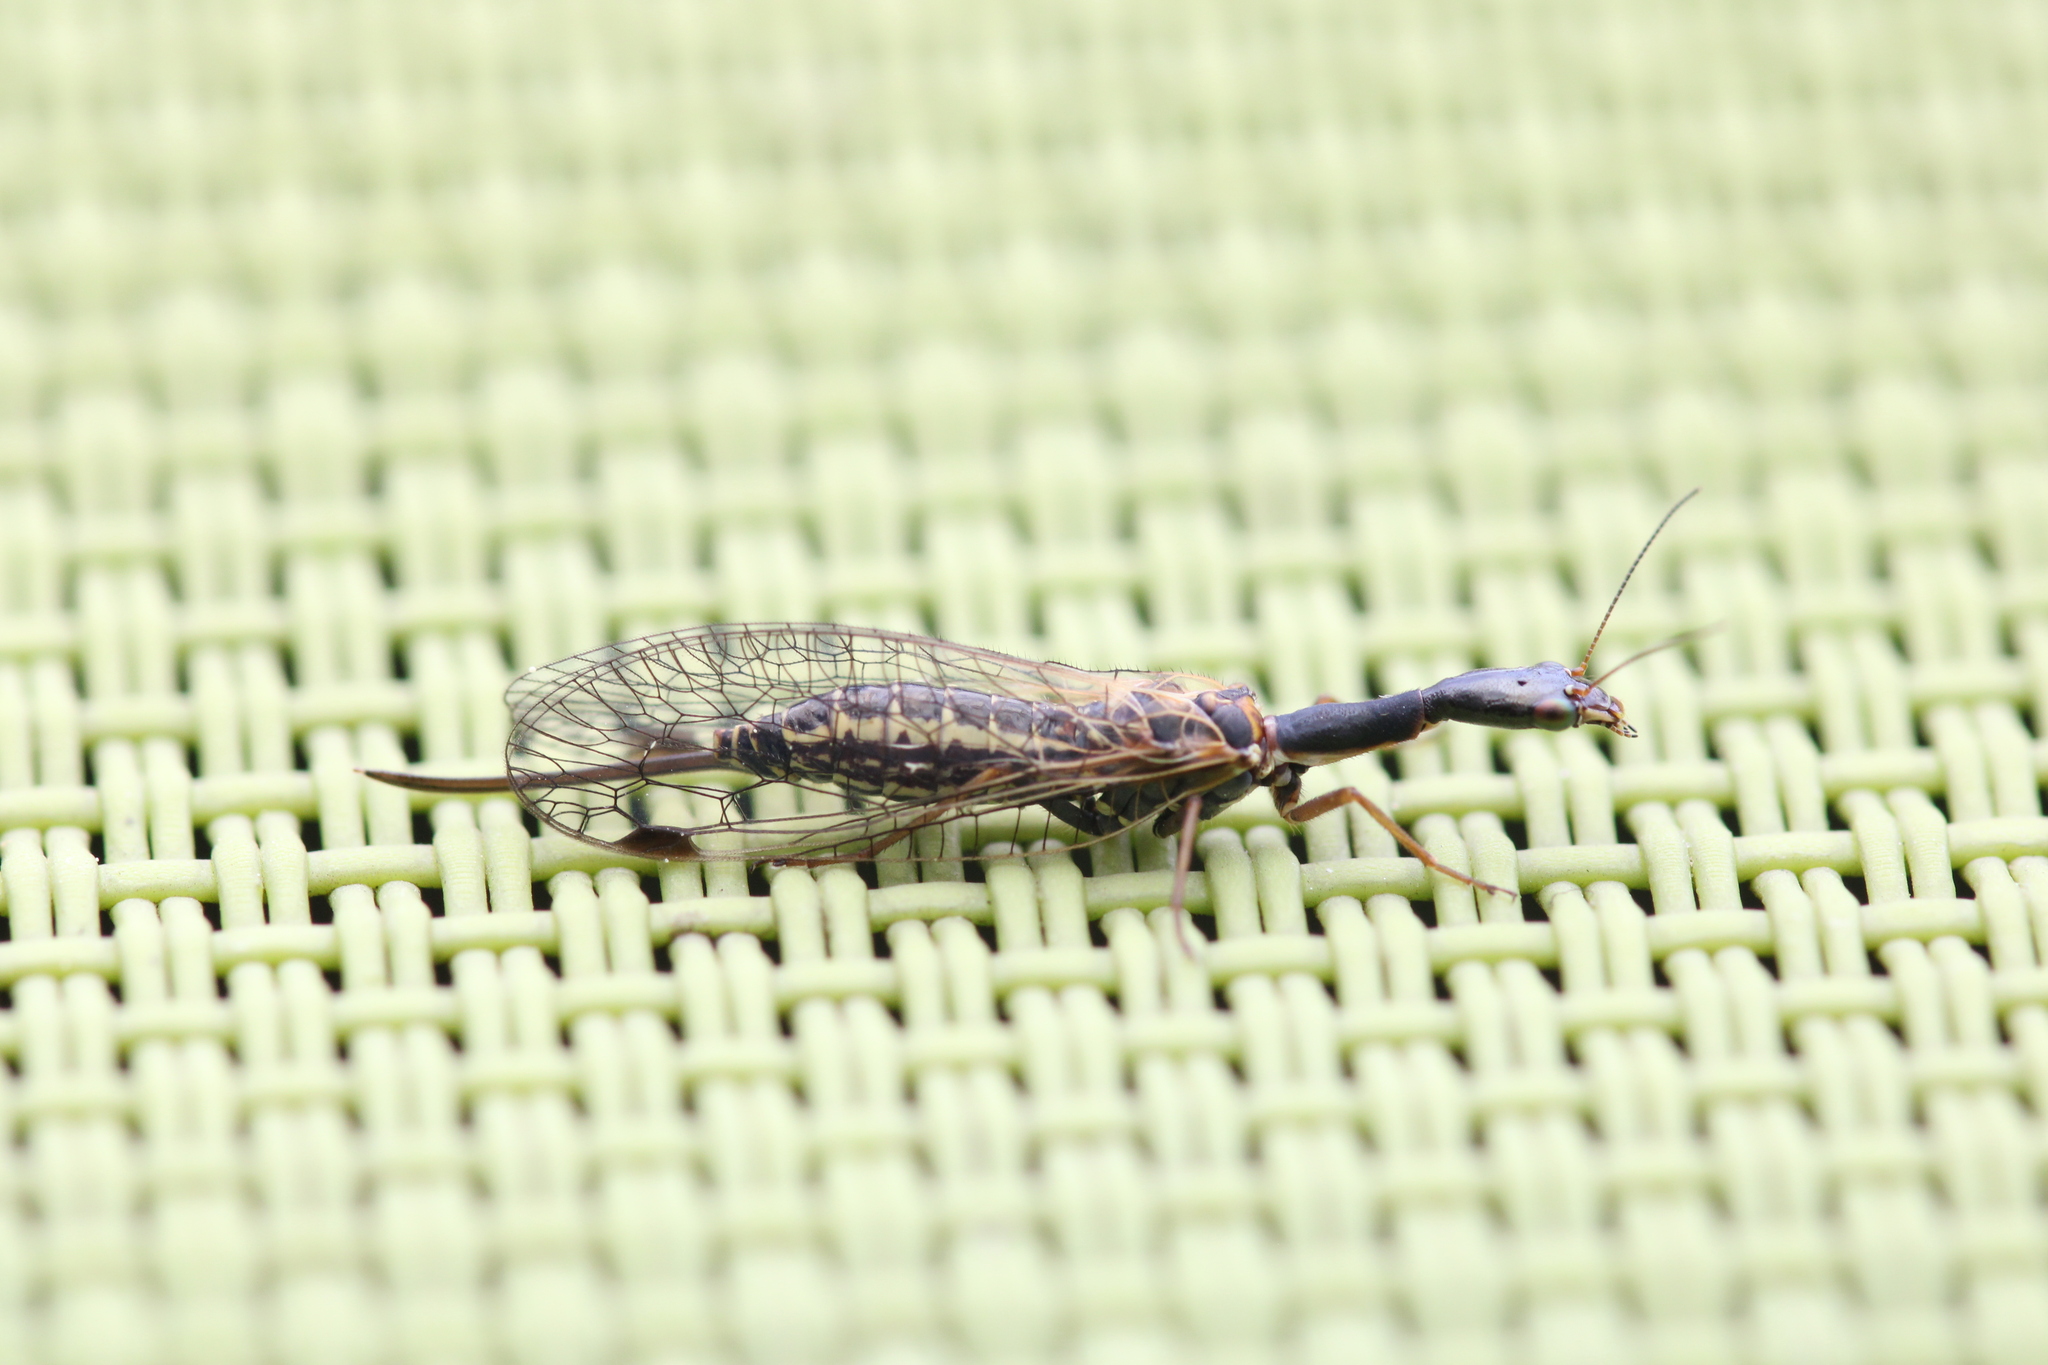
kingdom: Animalia
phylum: Arthropoda
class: Insecta
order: Raphidioptera
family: Raphidiidae
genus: Raphidia
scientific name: Raphidia ophiopsis
